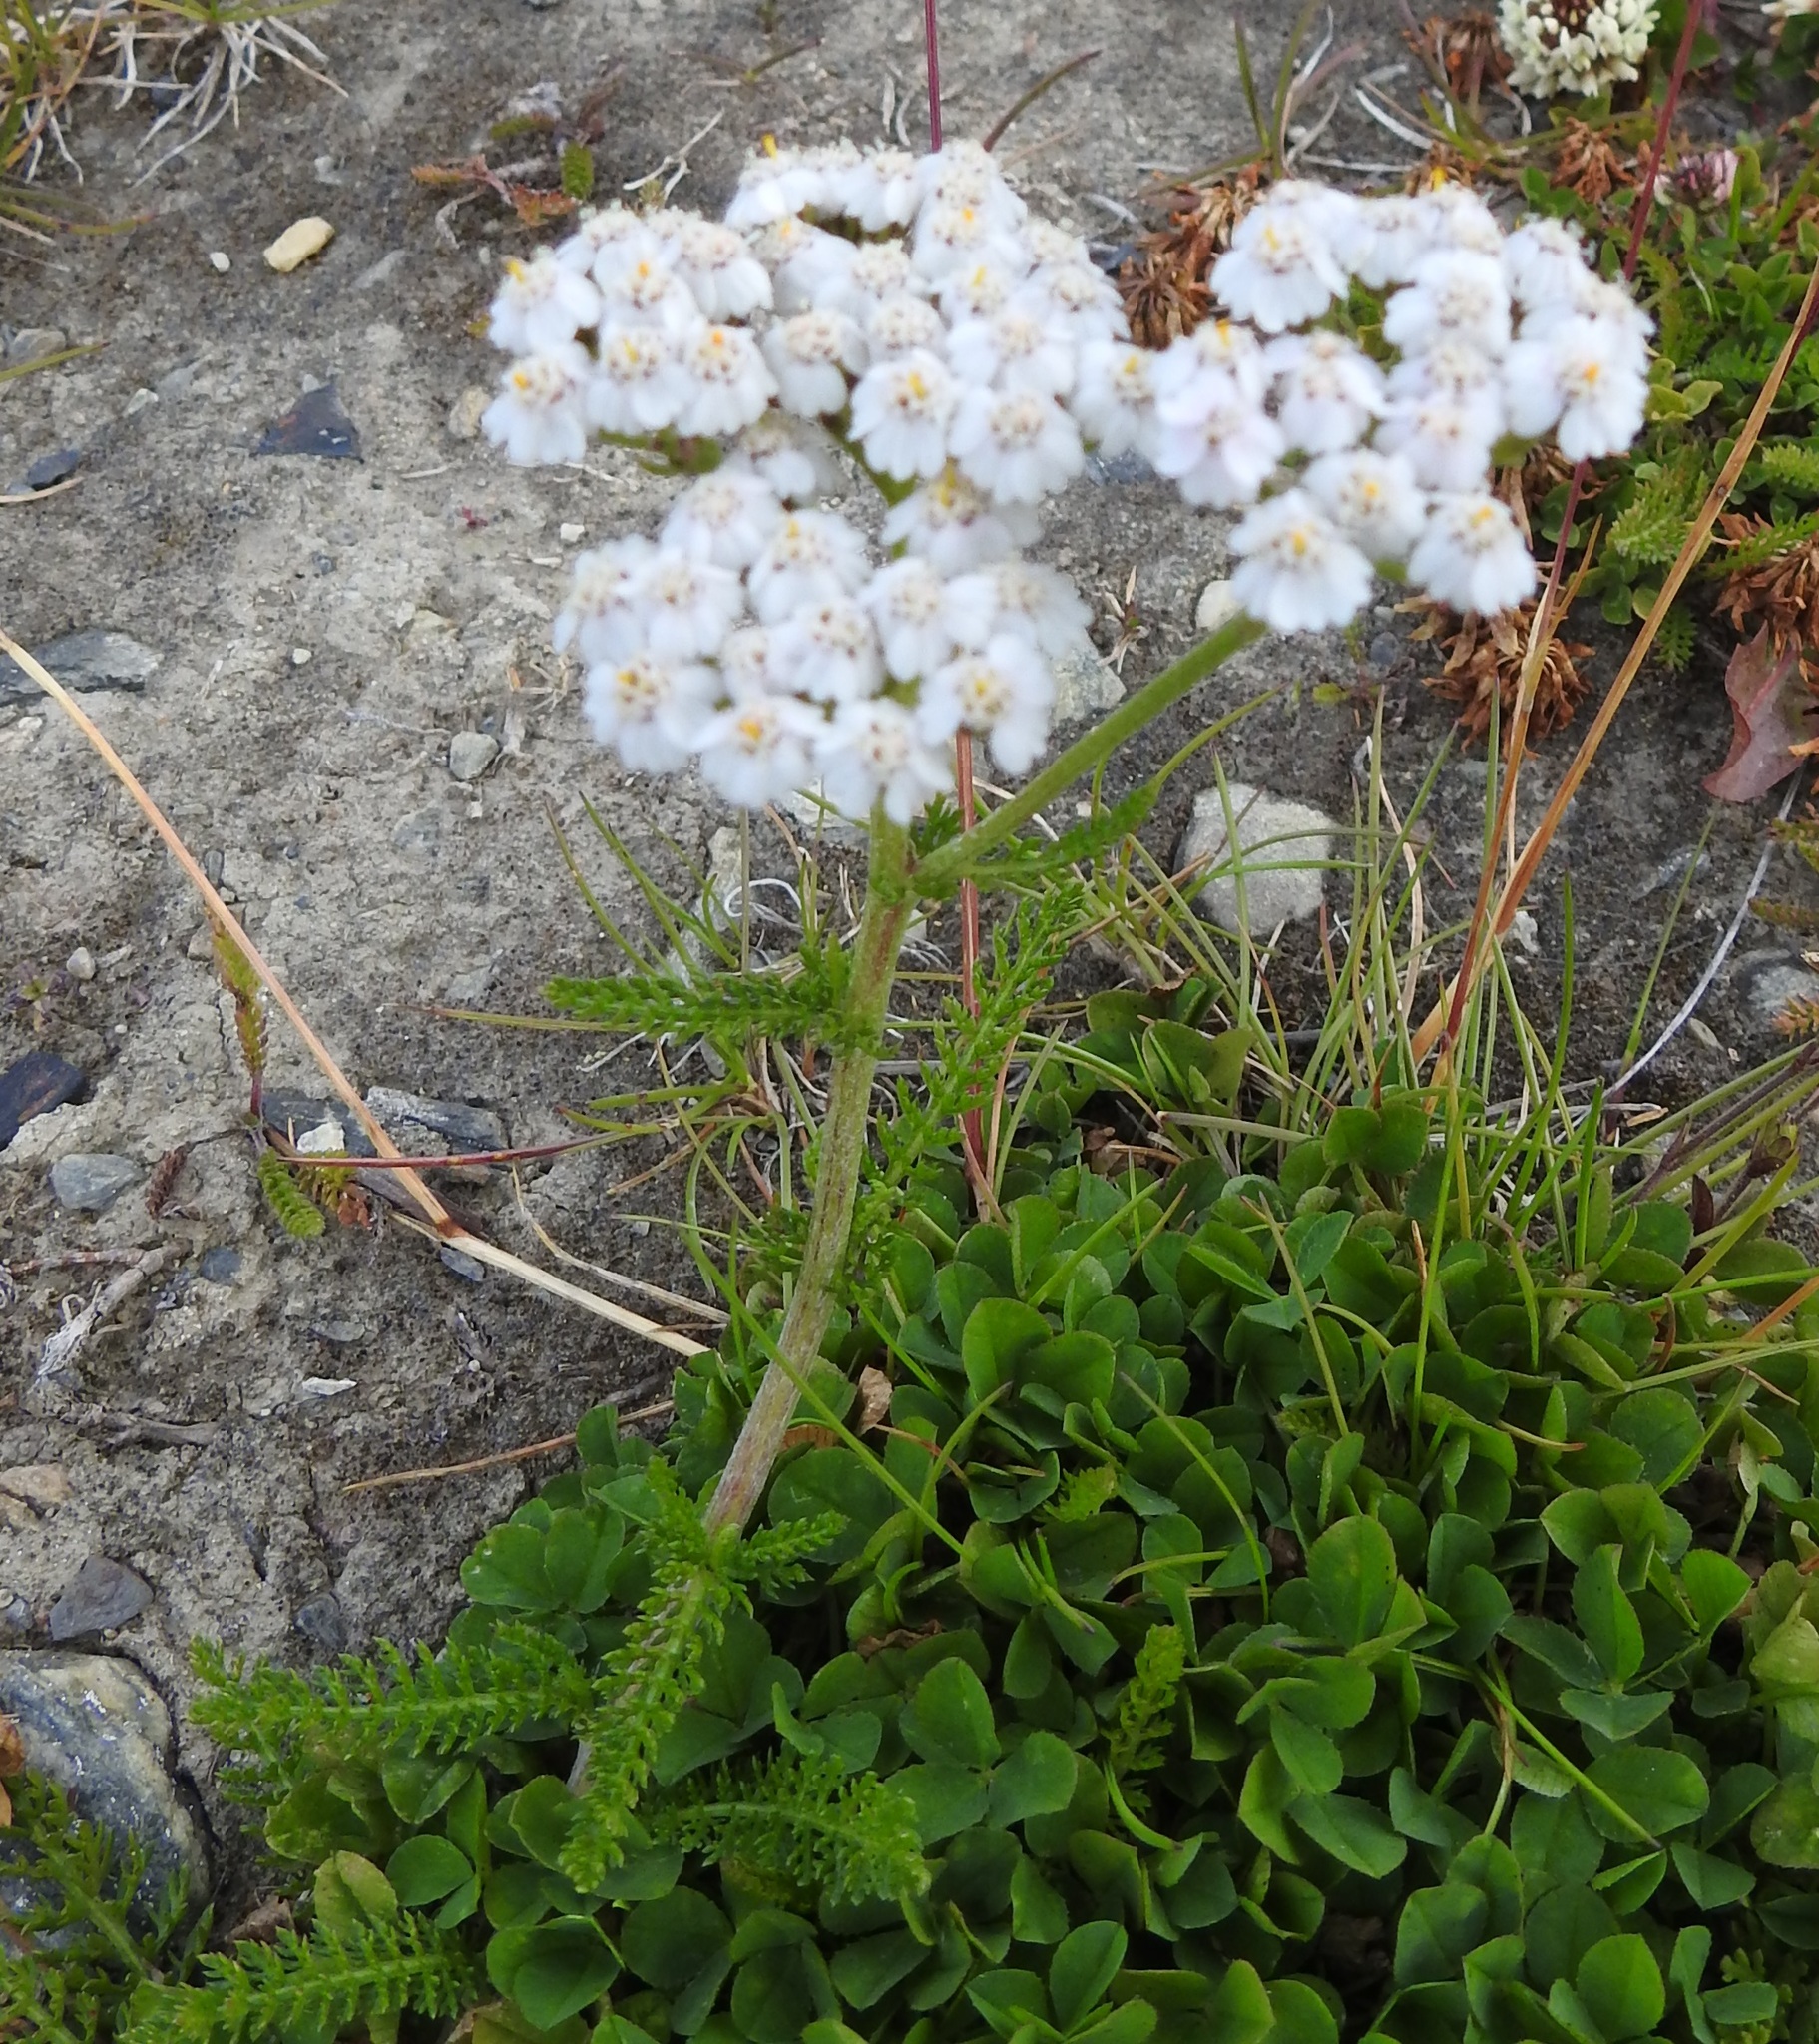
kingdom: Plantae
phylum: Tracheophyta
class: Magnoliopsida
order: Asterales
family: Asteraceae
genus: Achillea
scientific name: Achillea millefolium
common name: Yarrow
